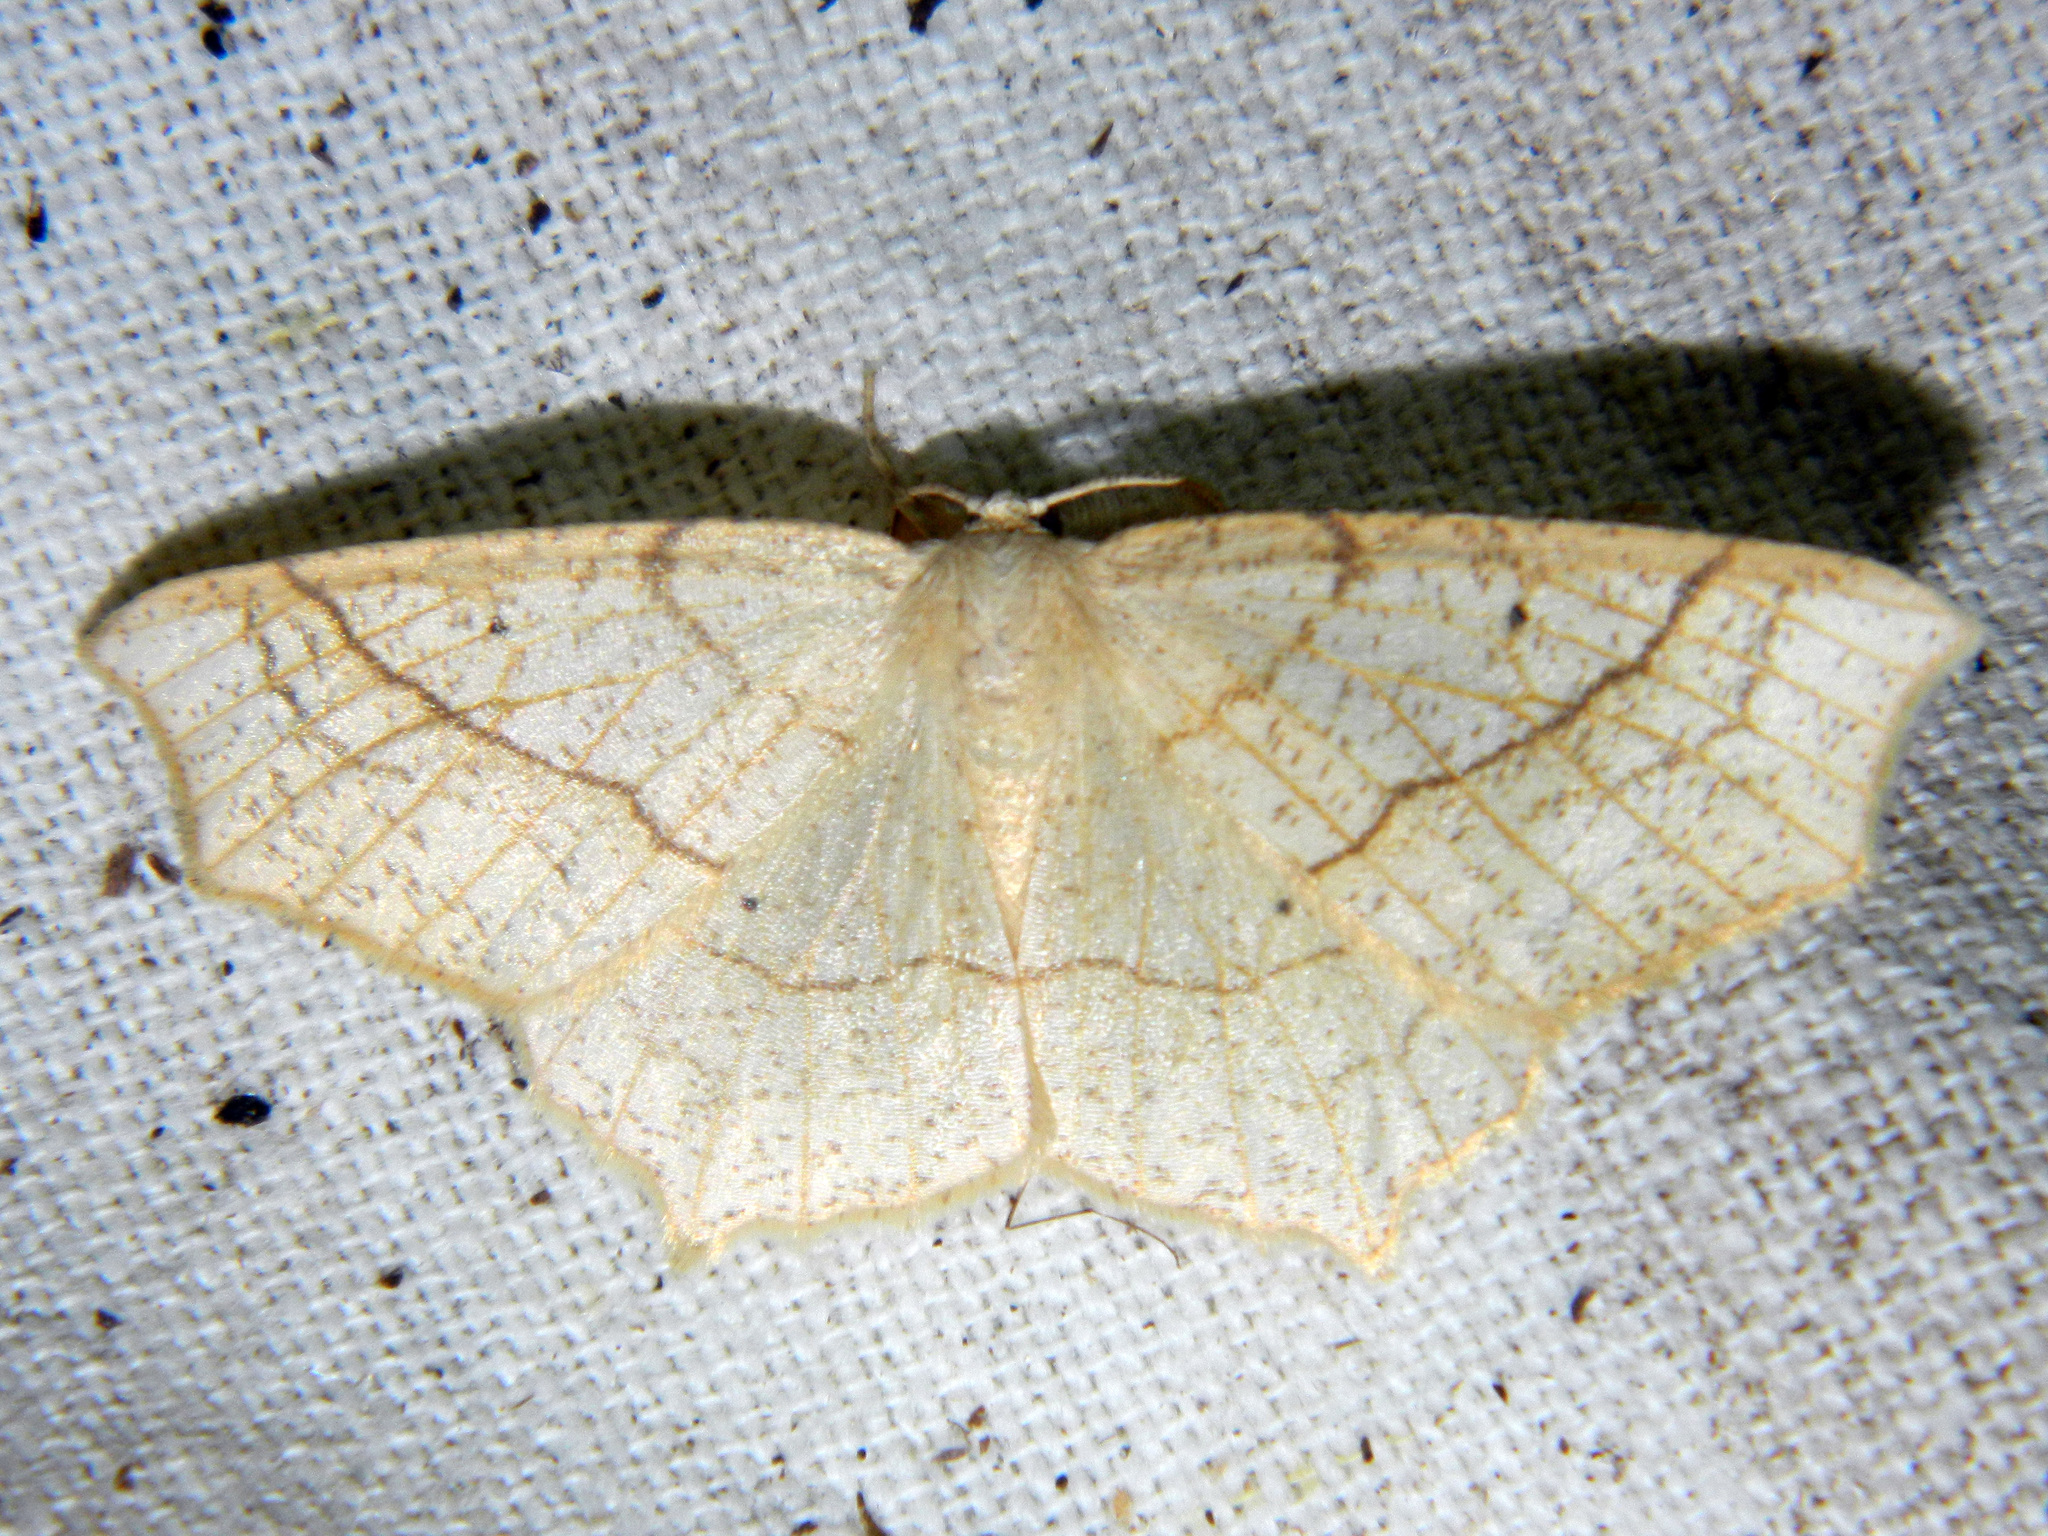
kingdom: Animalia
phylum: Arthropoda
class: Insecta
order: Lepidoptera
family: Geometridae
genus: Besma
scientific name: Besma quercivoraria
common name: Oak besma
